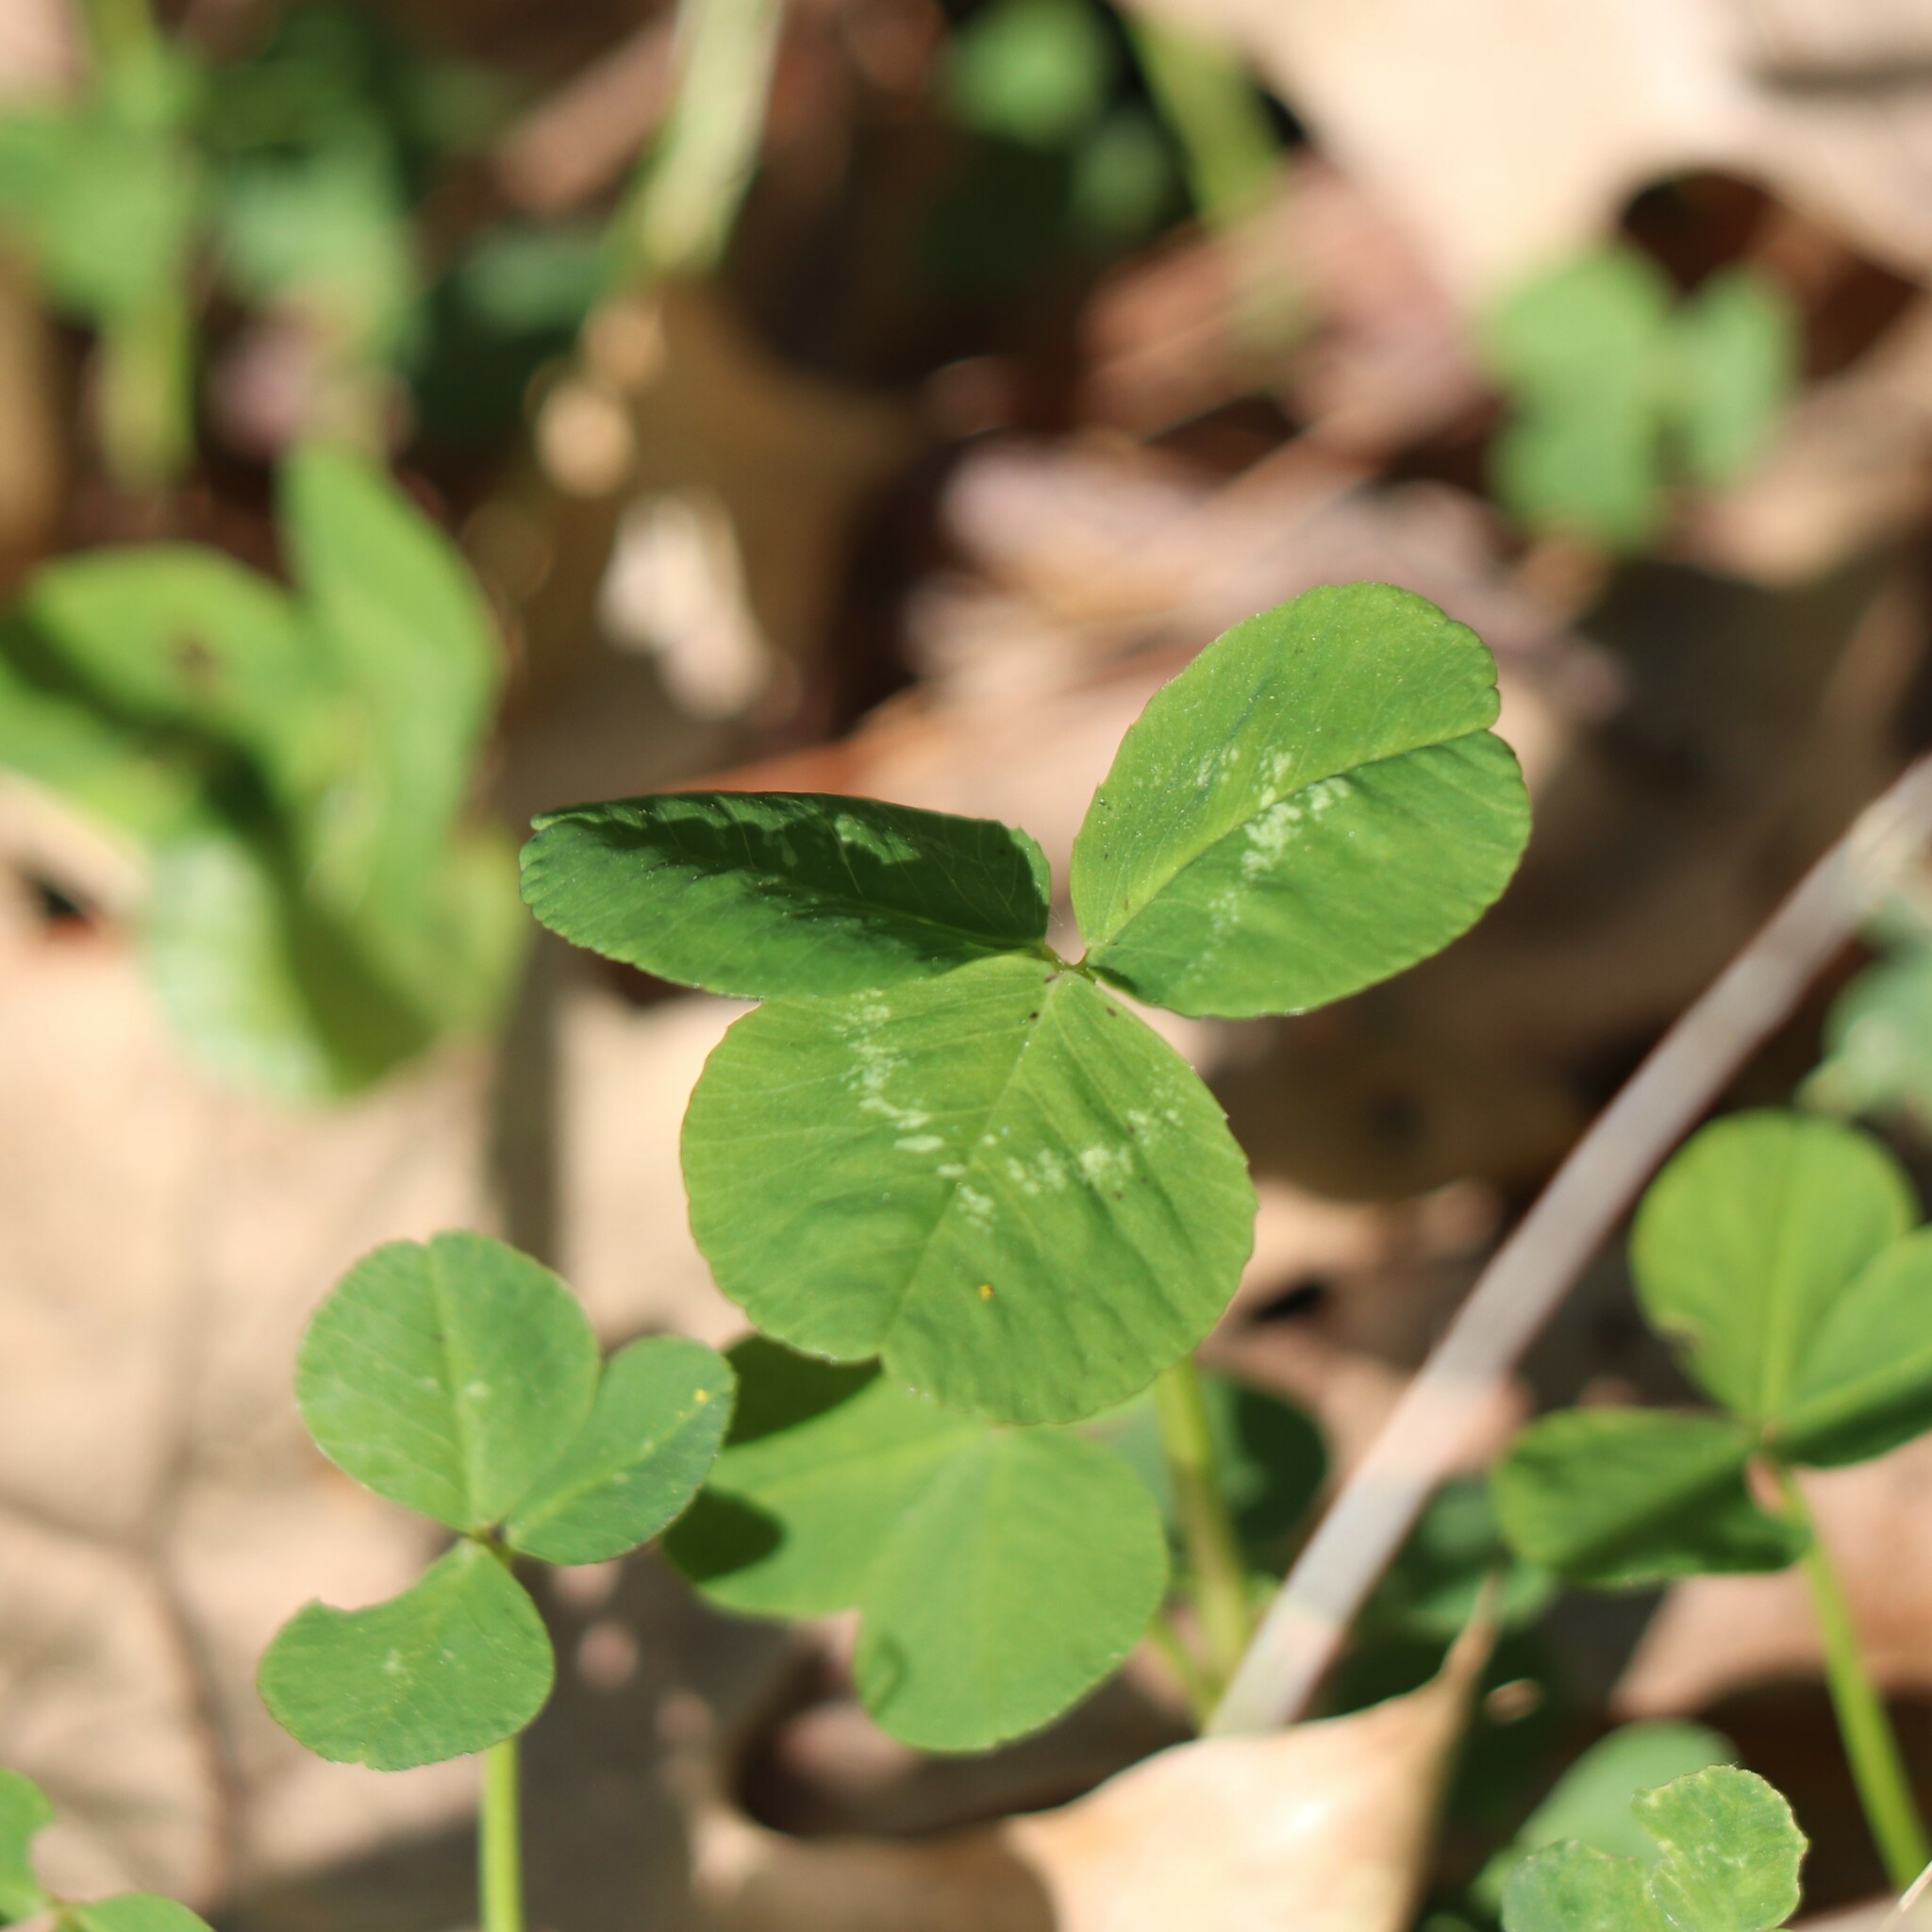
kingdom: Plantae
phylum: Tracheophyta
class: Magnoliopsida
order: Fabales
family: Fabaceae
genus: Trifolium
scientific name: Trifolium repens
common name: White clover
